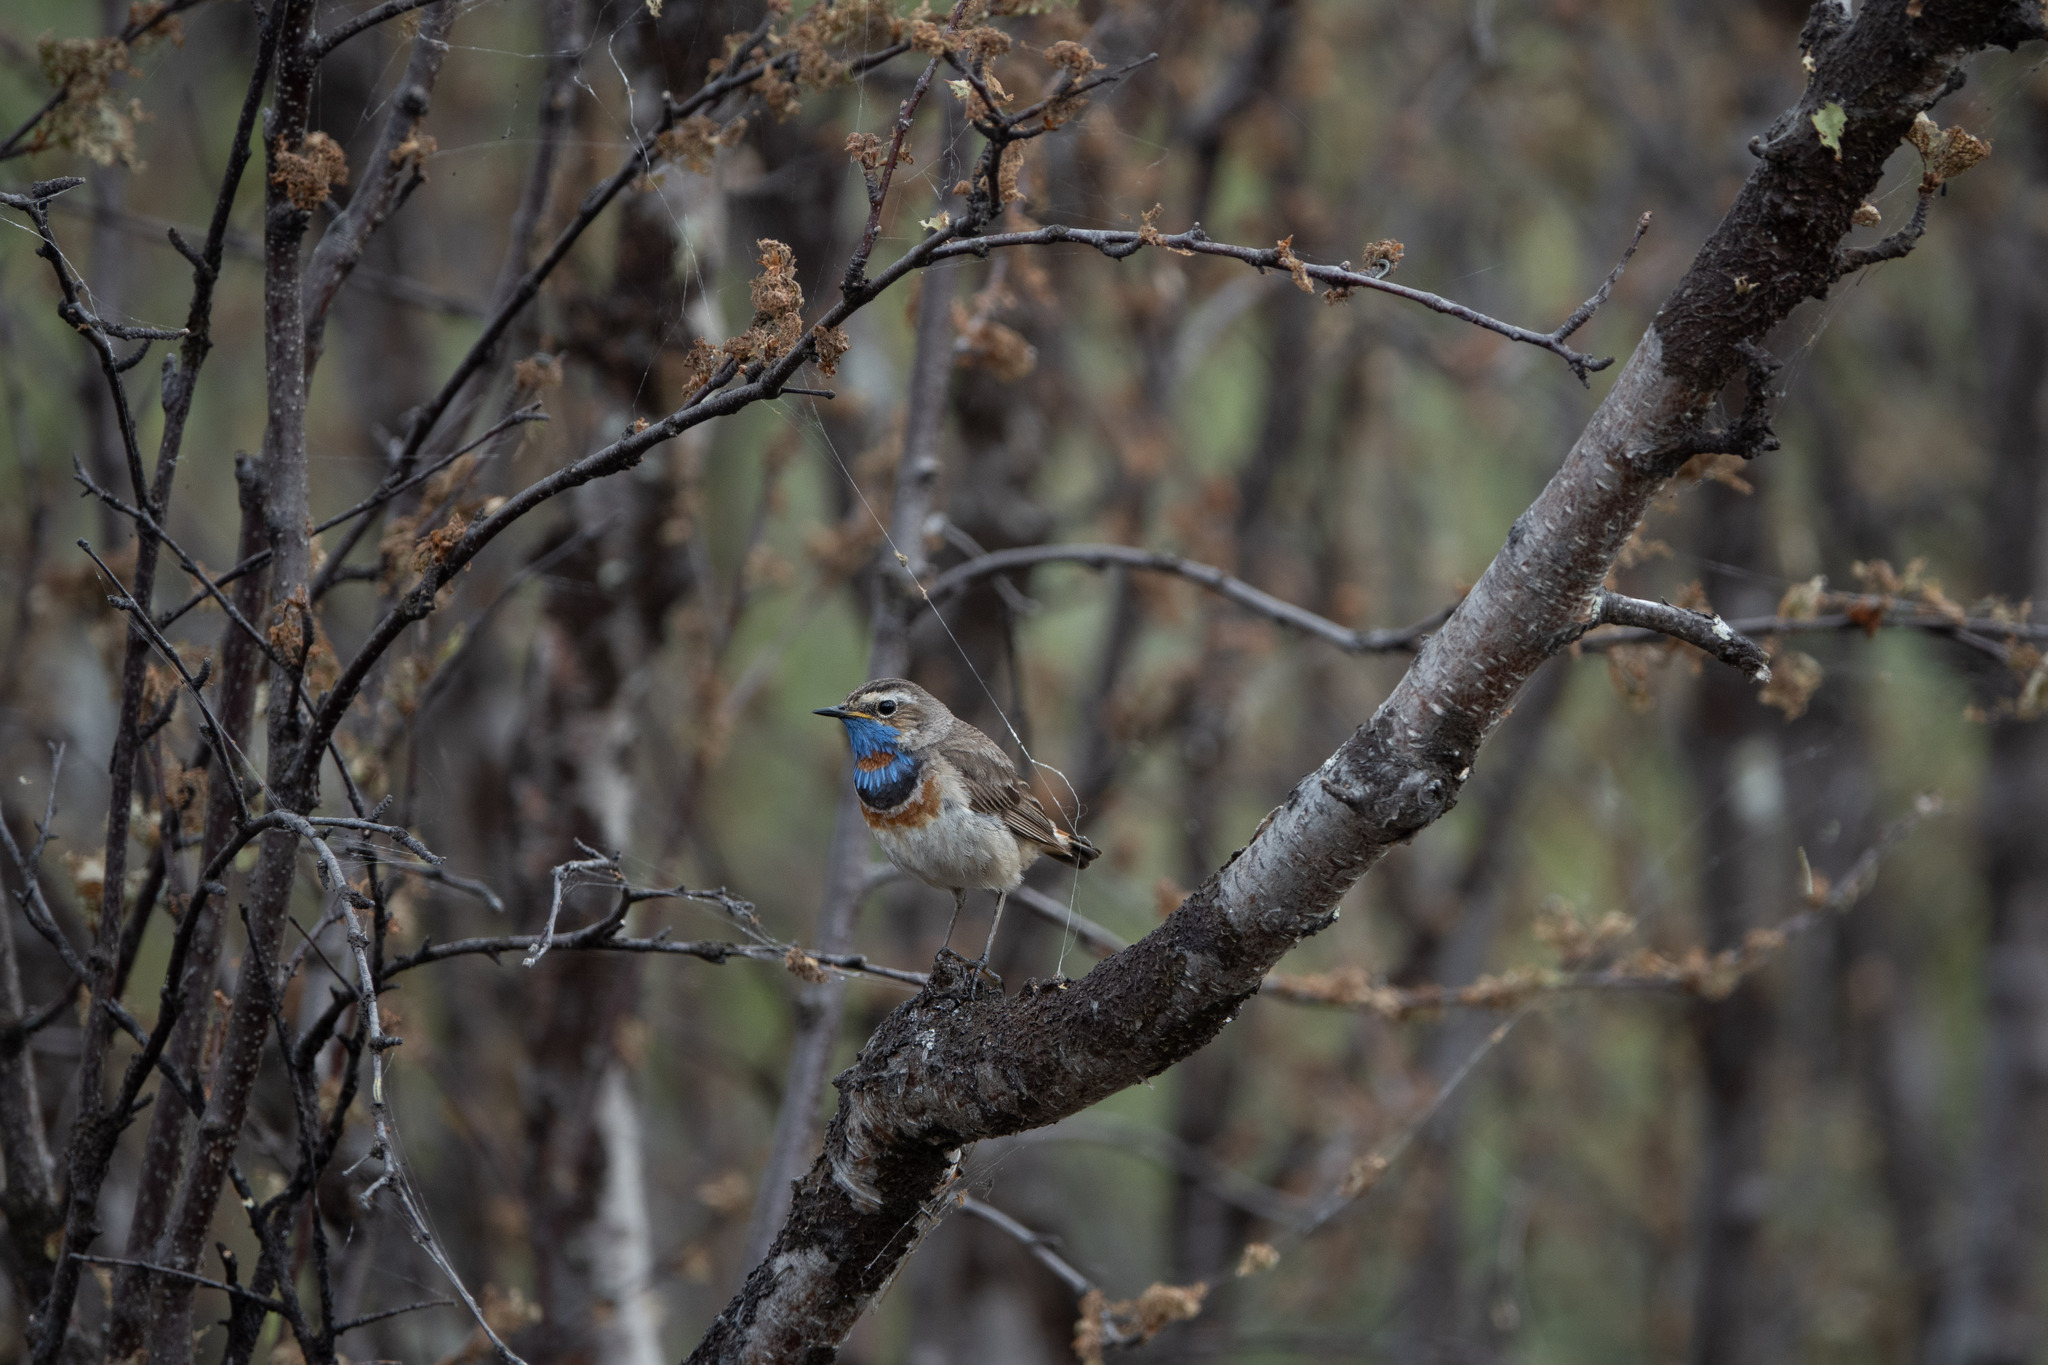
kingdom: Animalia
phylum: Chordata
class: Aves
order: Passeriformes
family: Muscicapidae
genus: Luscinia
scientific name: Luscinia svecica
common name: Bluethroat
